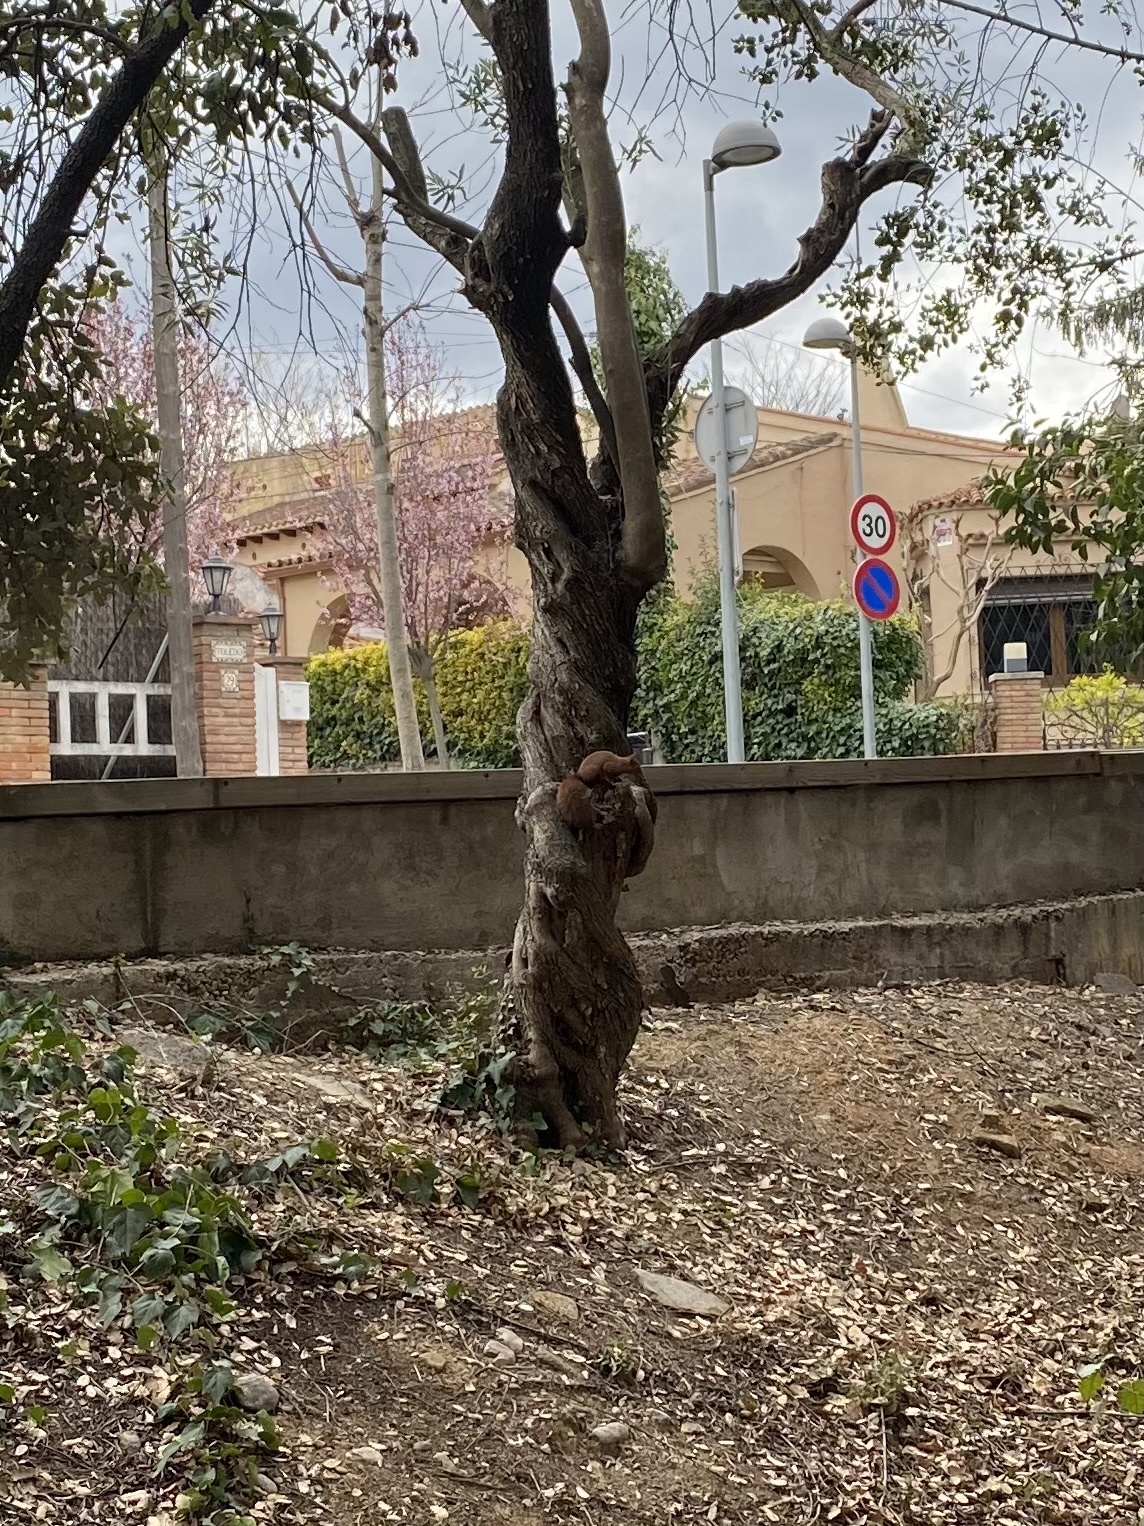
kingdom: Animalia
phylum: Chordata
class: Mammalia
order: Rodentia
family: Sciuridae
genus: Sciurus
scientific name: Sciurus vulgaris
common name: Eurasian red squirrel
